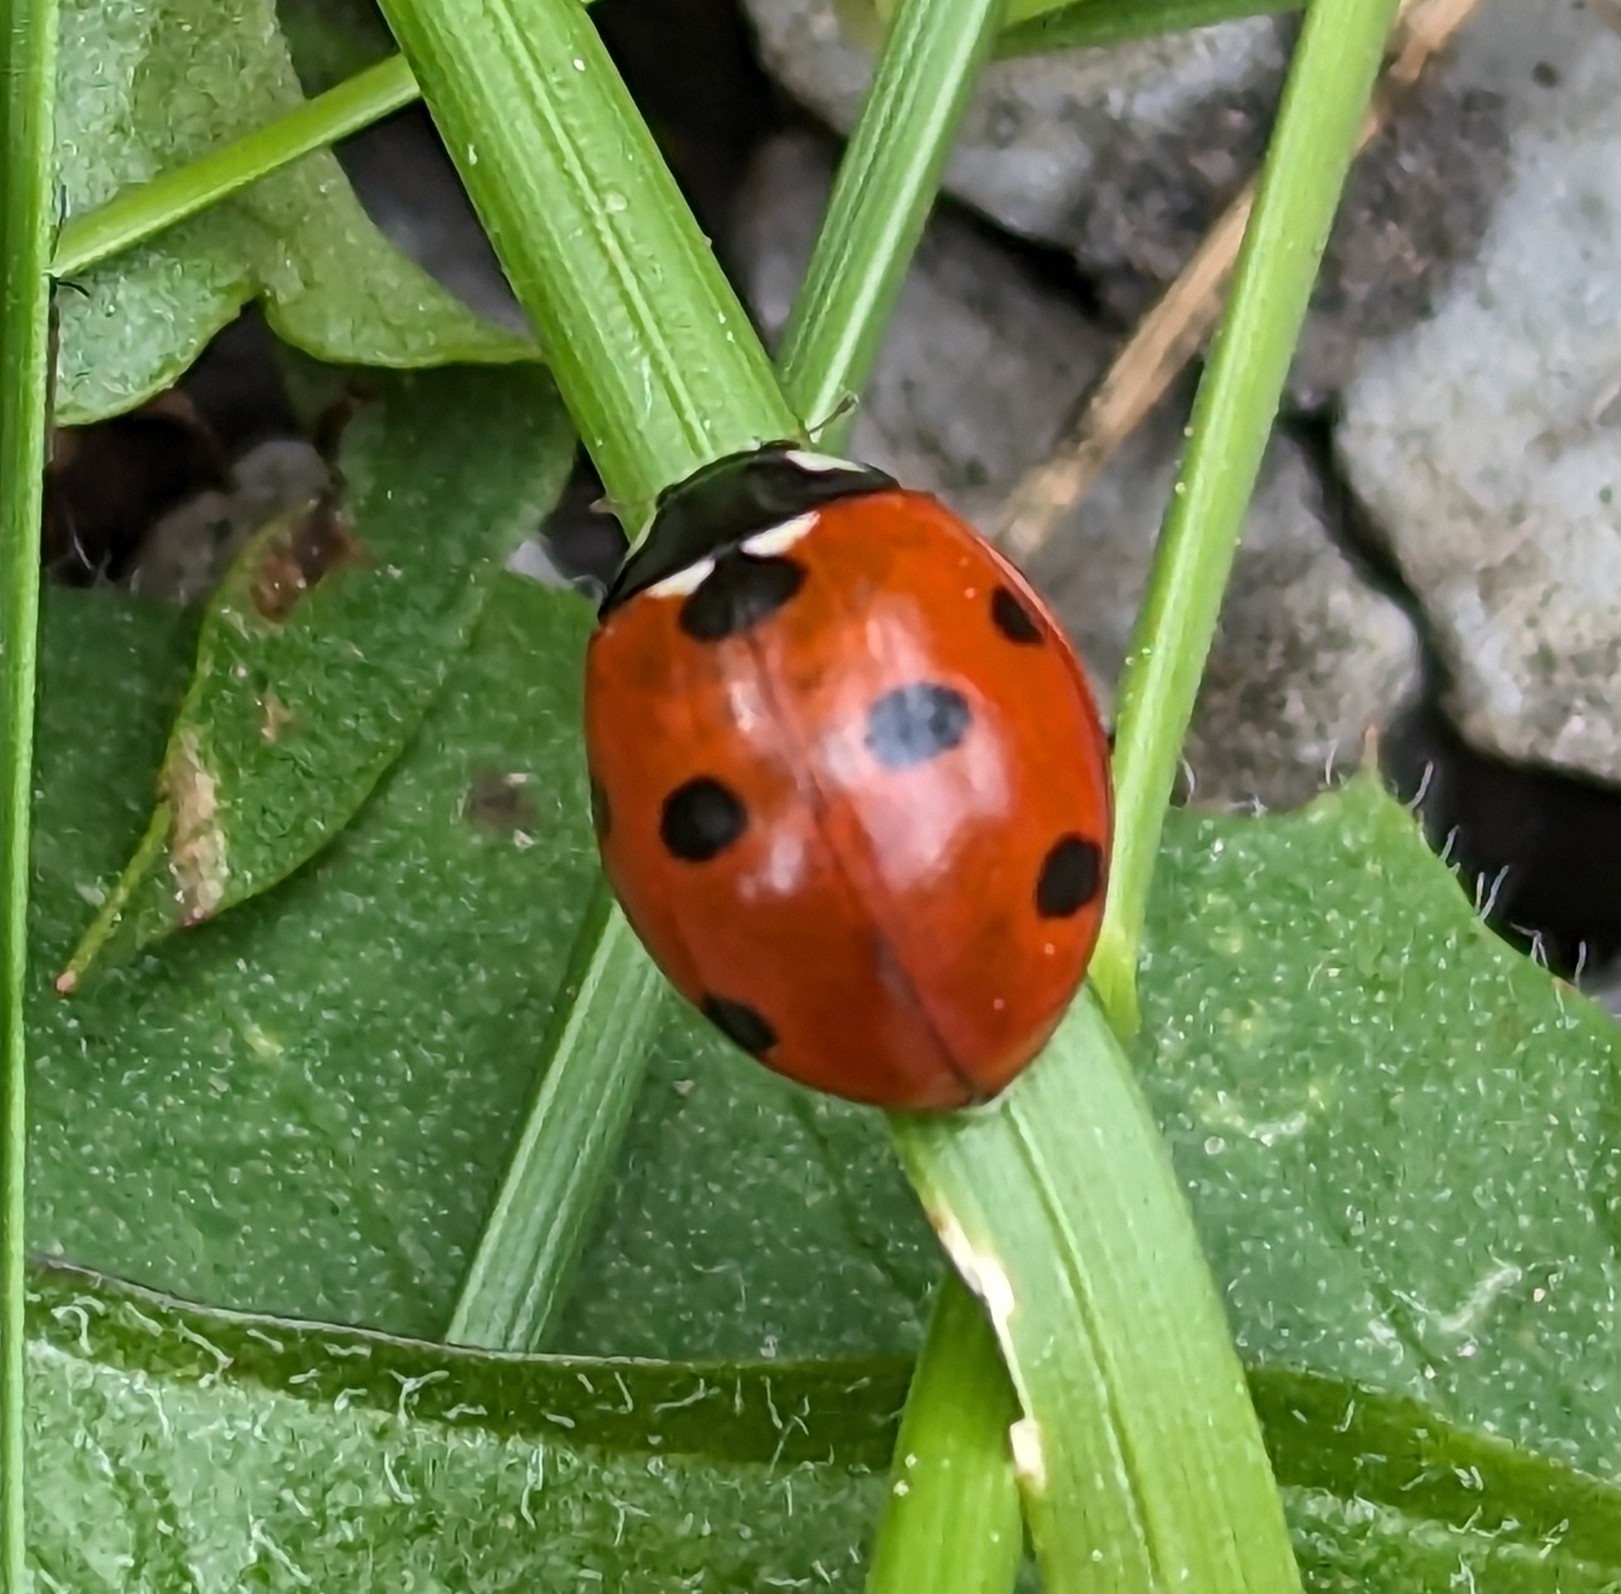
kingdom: Animalia
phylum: Arthropoda
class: Insecta
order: Coleoptera
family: Coccinellidae
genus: Coccinella
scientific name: Coccinella septempunctata
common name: Sevenspotted lady beetle
